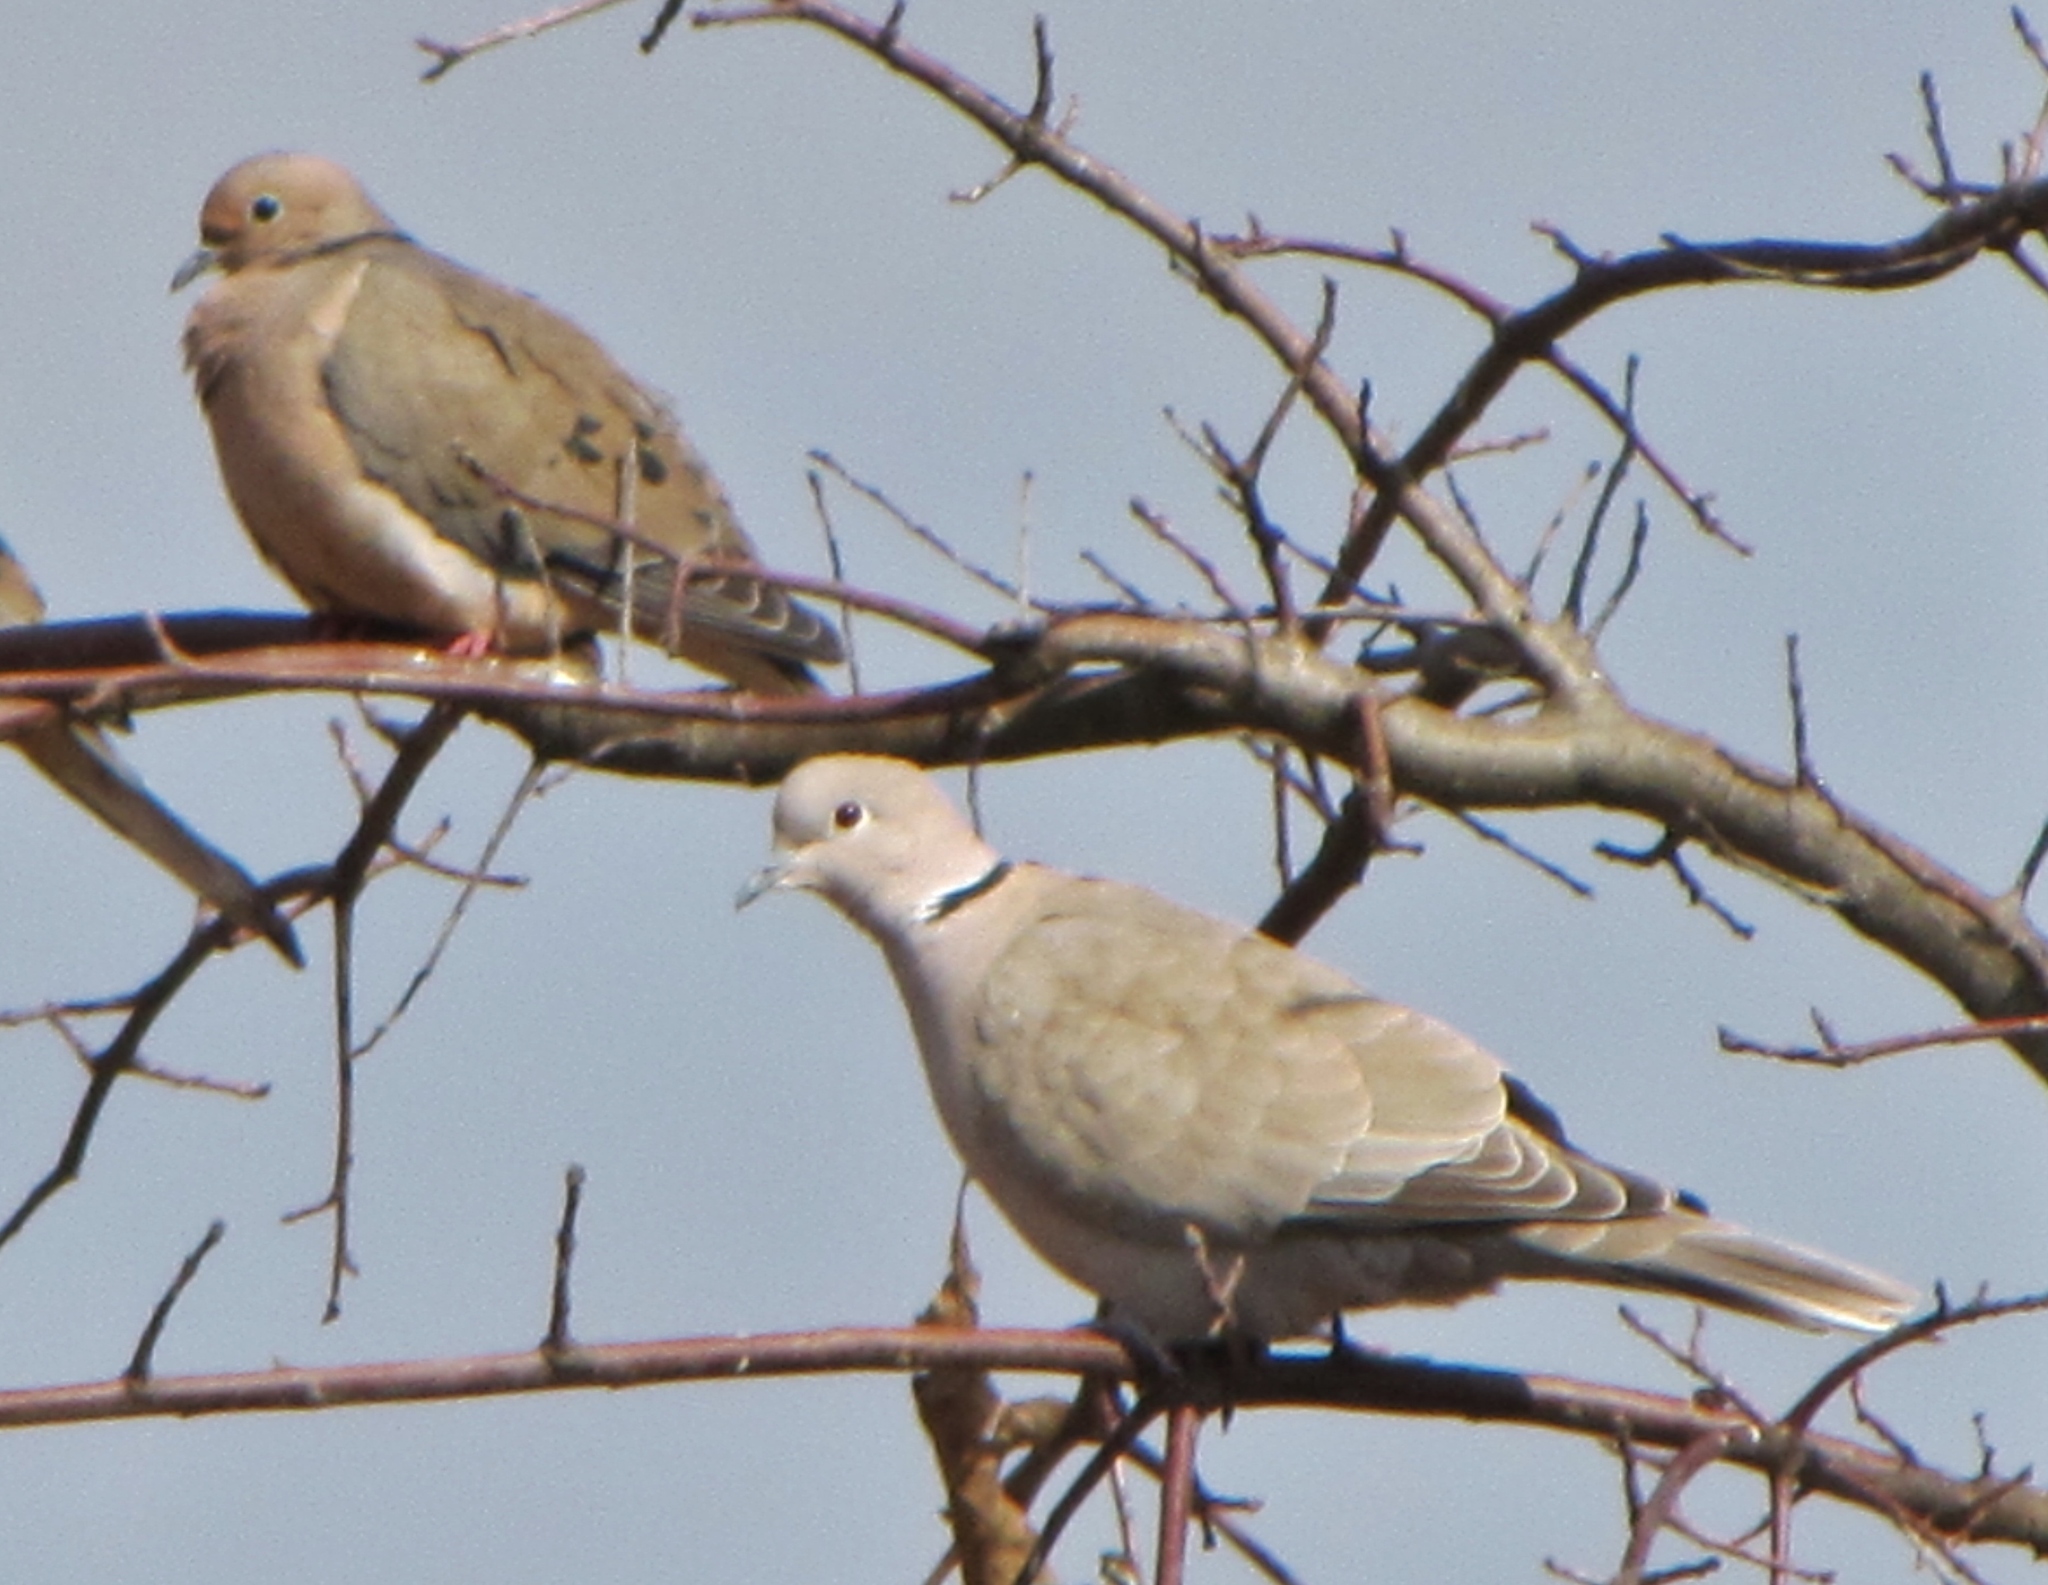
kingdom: Animalia
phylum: Chordata
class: Aves
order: Columbiformes
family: Columbidae
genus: Streptopelia
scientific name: Streptopelia decaocto
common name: Eurasian collared dove
